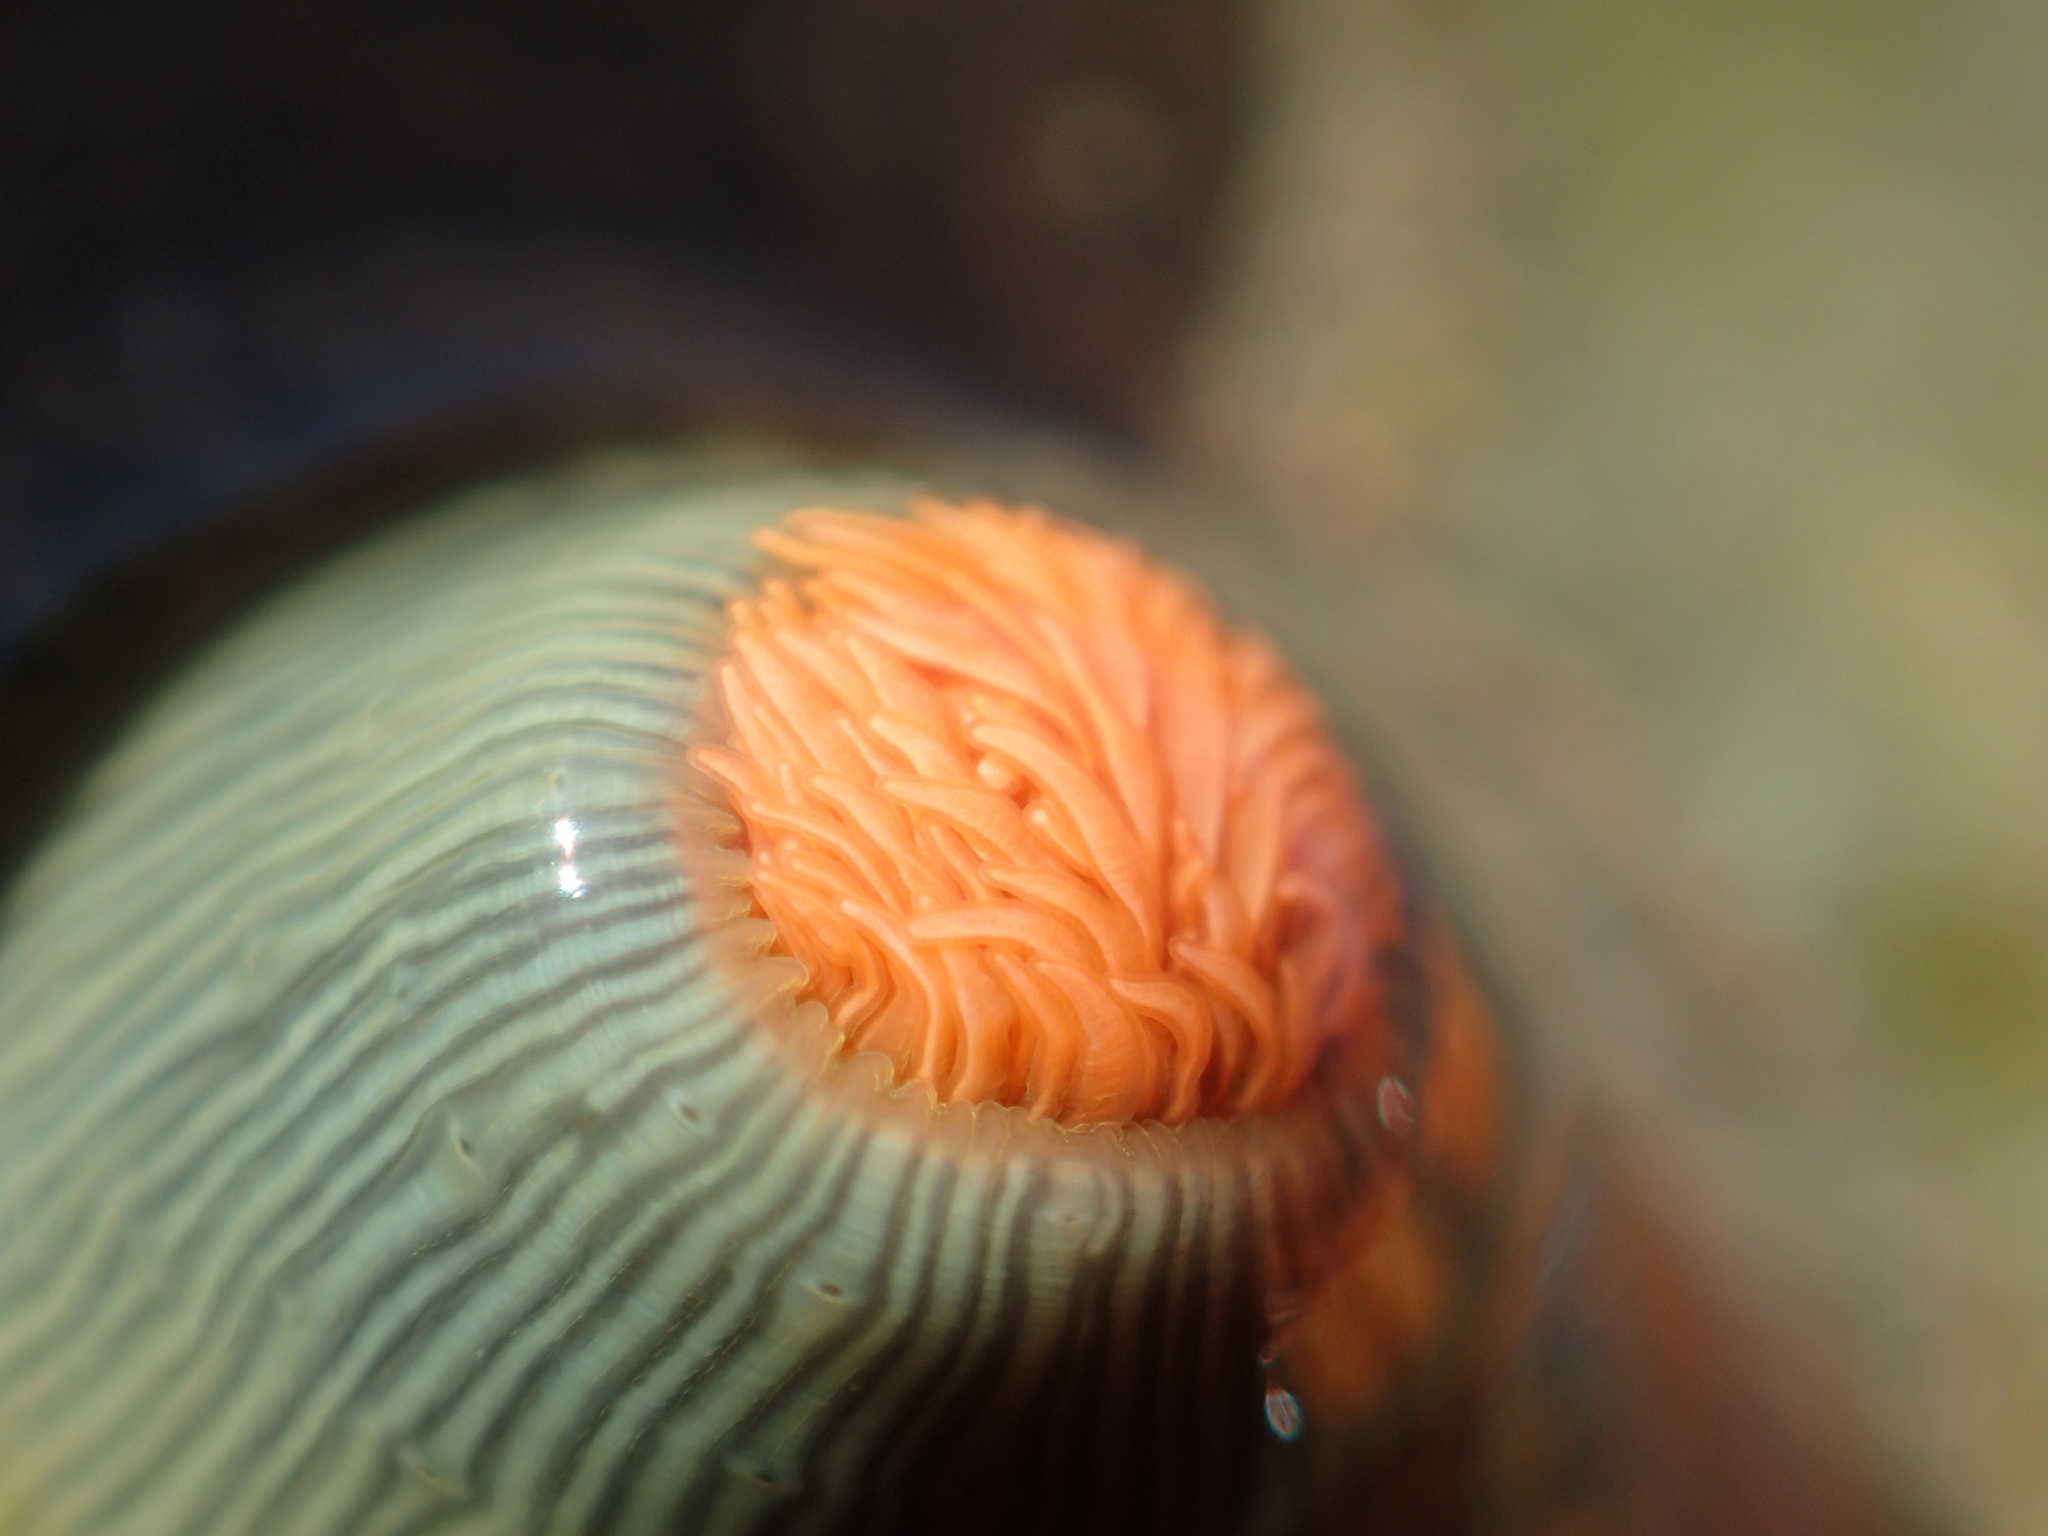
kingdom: Animalia
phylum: Cnidaria
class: Anthozoa
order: Actiniaria
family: Diadumenidae
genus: Diadumene
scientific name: Diadumene neozelanica
